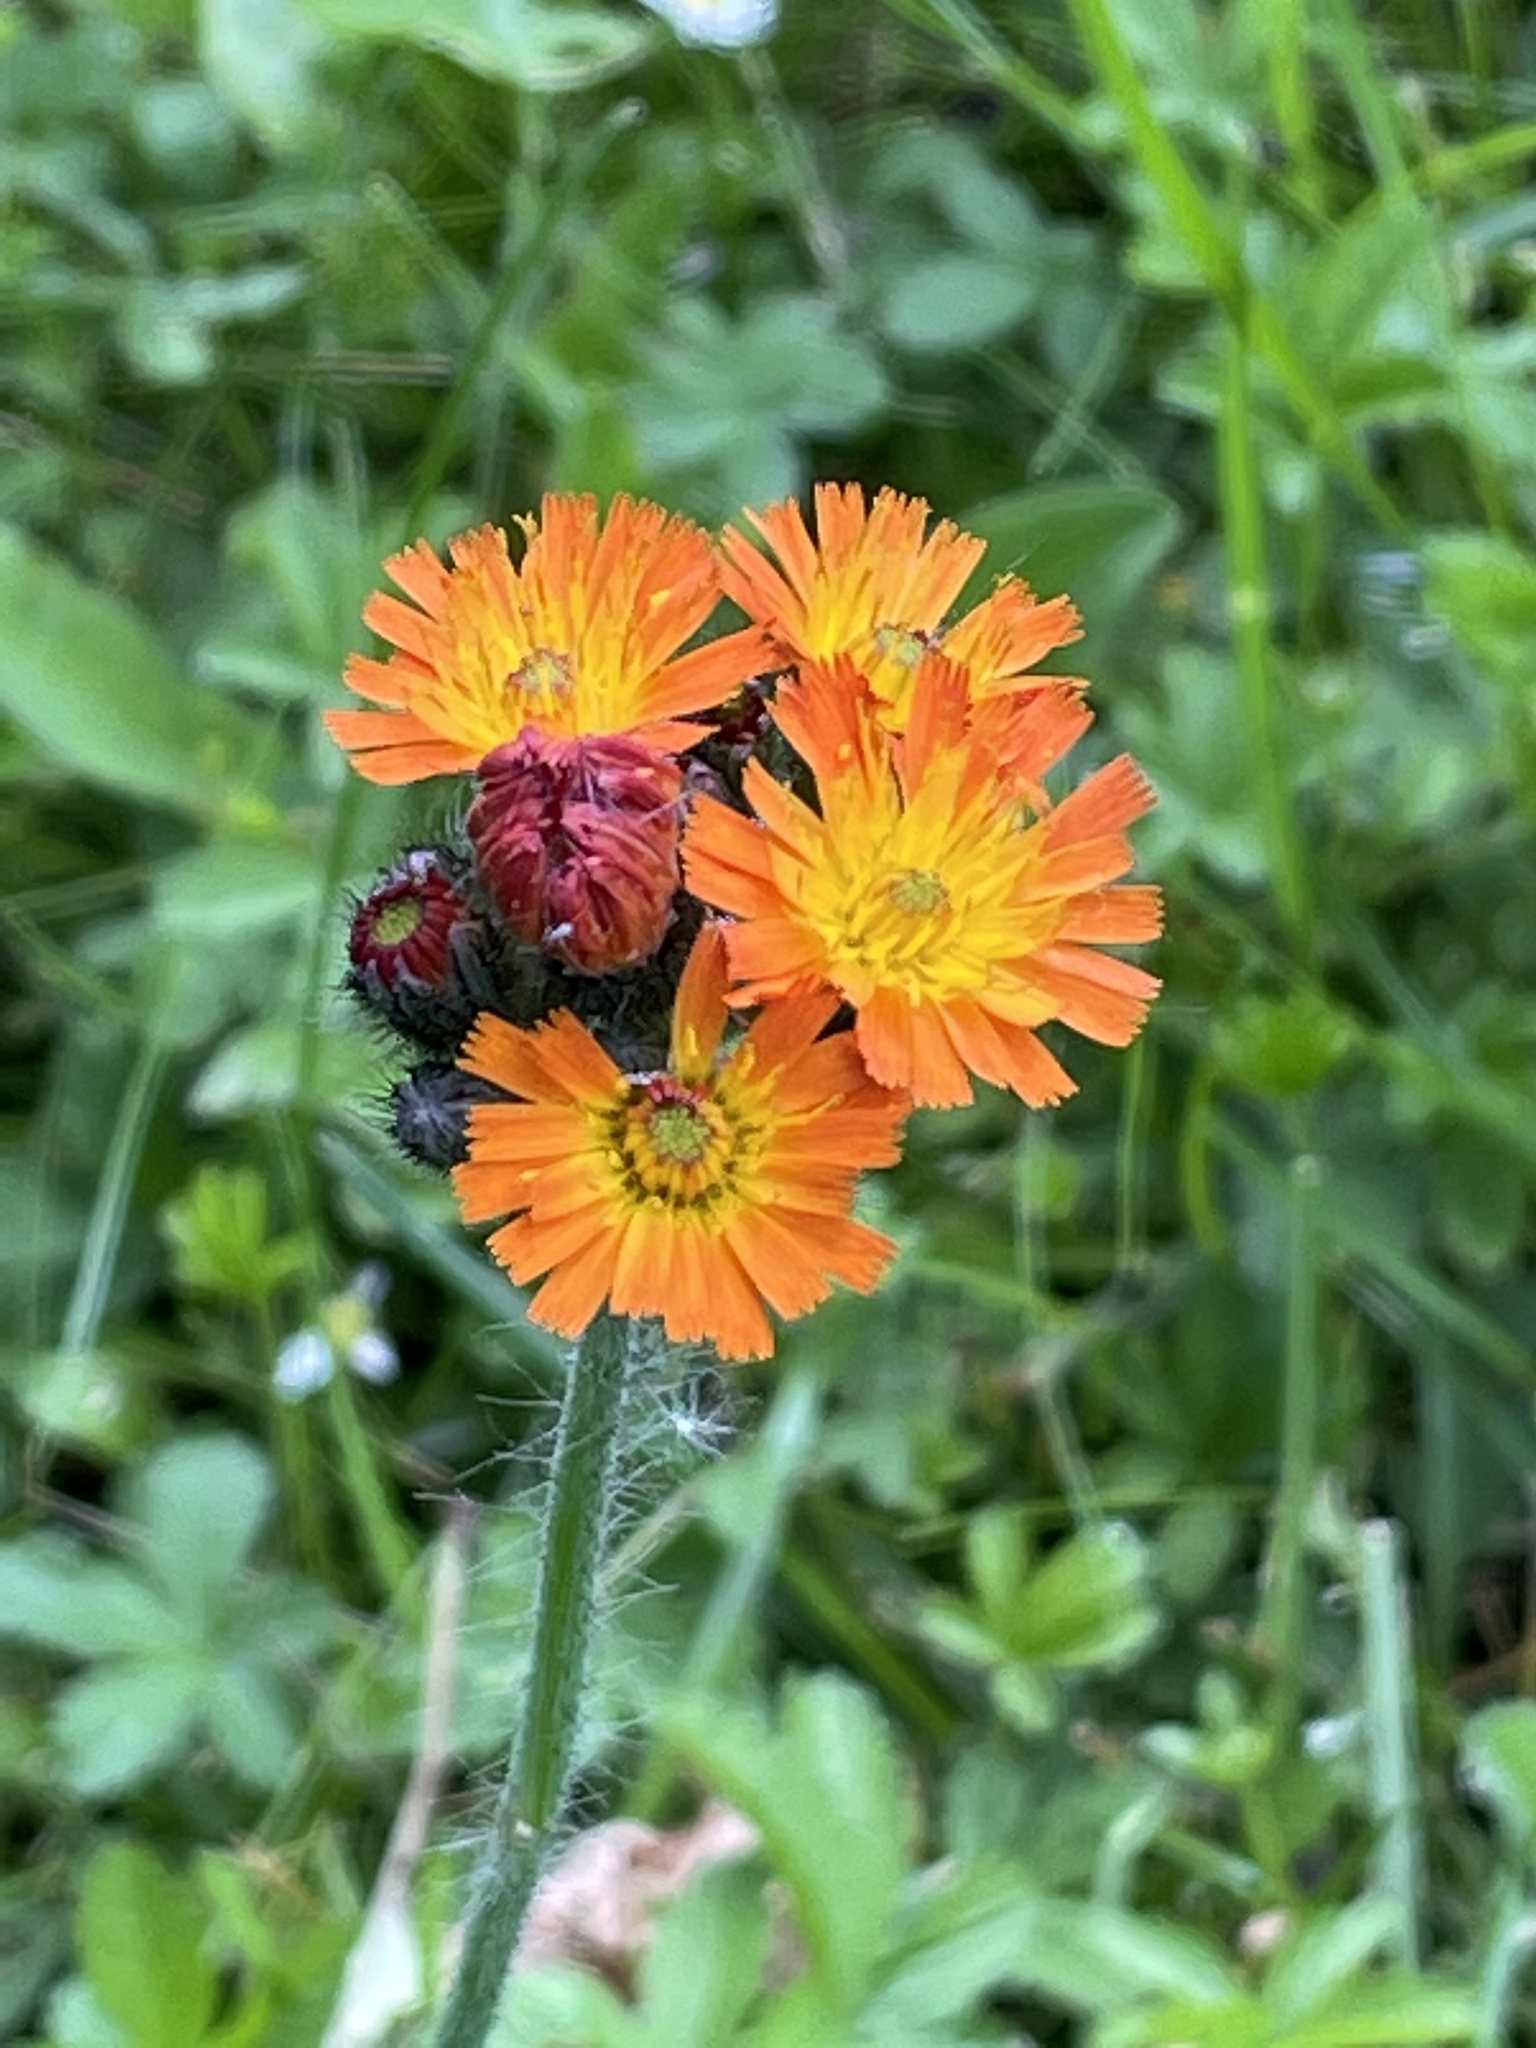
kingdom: Plantae
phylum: Tracheophyta
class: Magnoliopsida
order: Asterales
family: Asteraceae
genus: Pilosella
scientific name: Pilosella aurantiaca
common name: Fox-and-cubs
